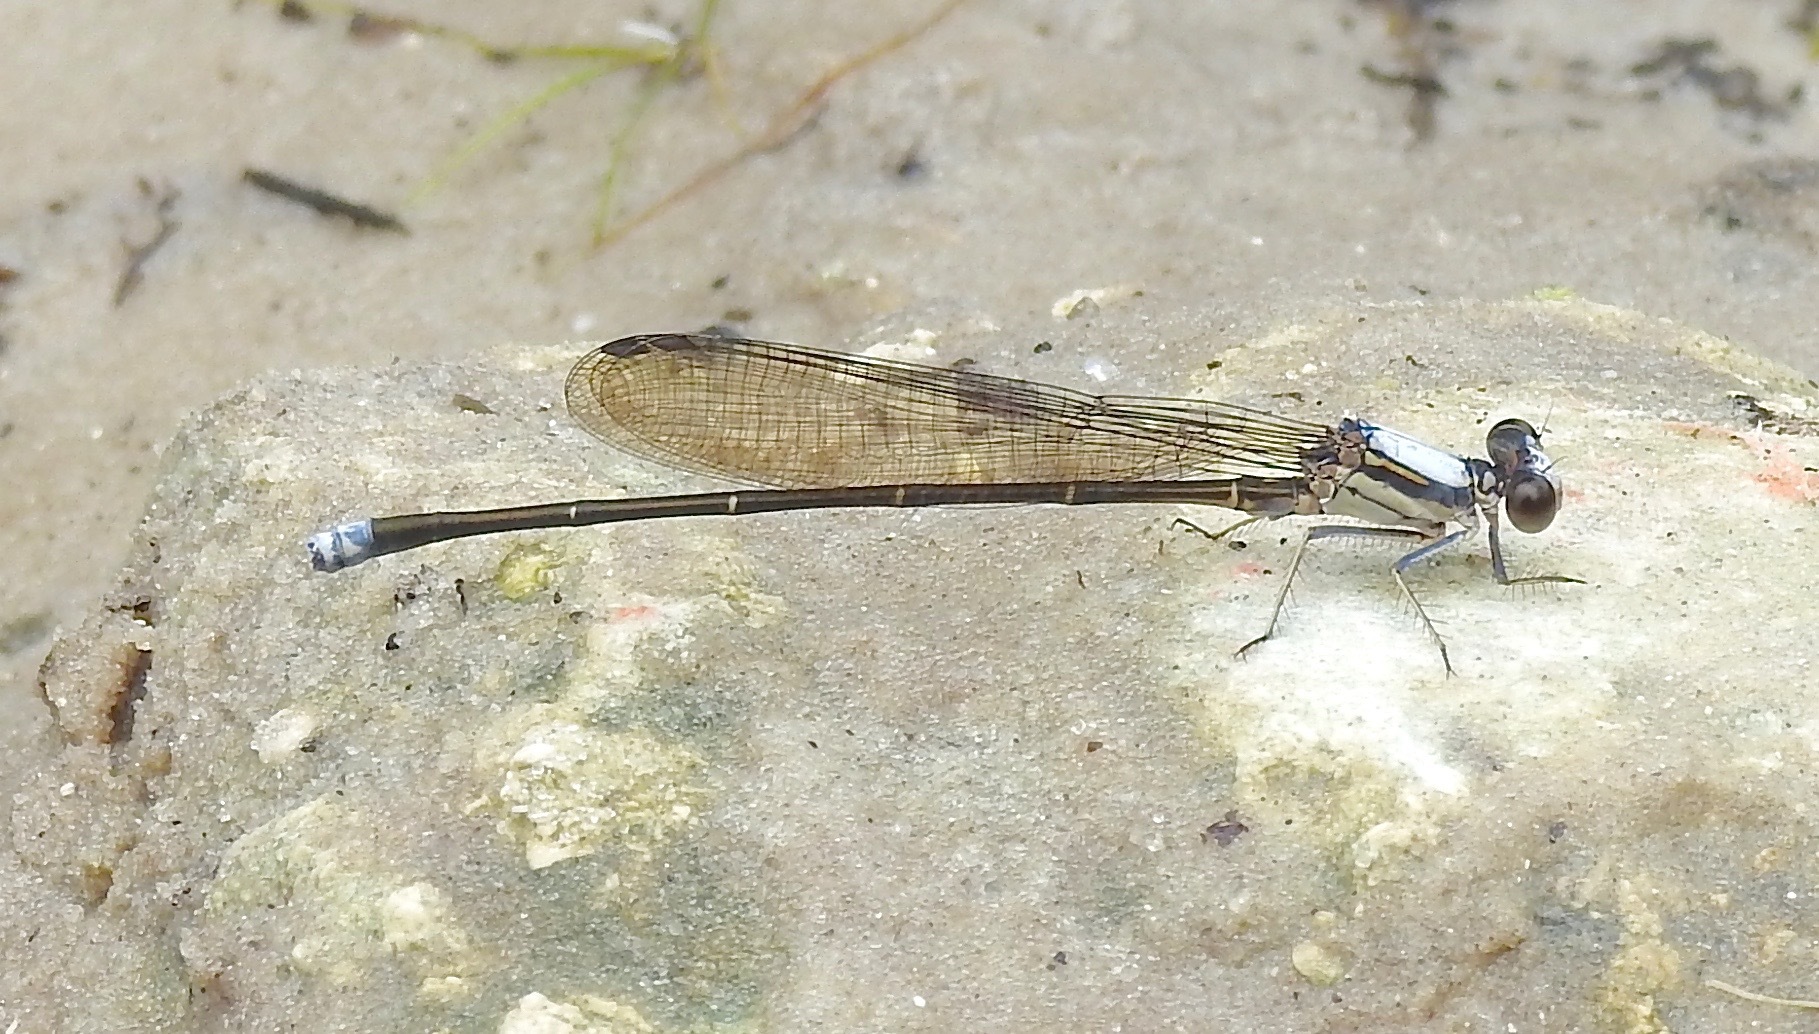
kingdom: Animalia
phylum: Arthropoda
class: Insecta
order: Odonata
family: Coenagrionidae
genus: Argia
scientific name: Argia moesta
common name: Powdered dancer
